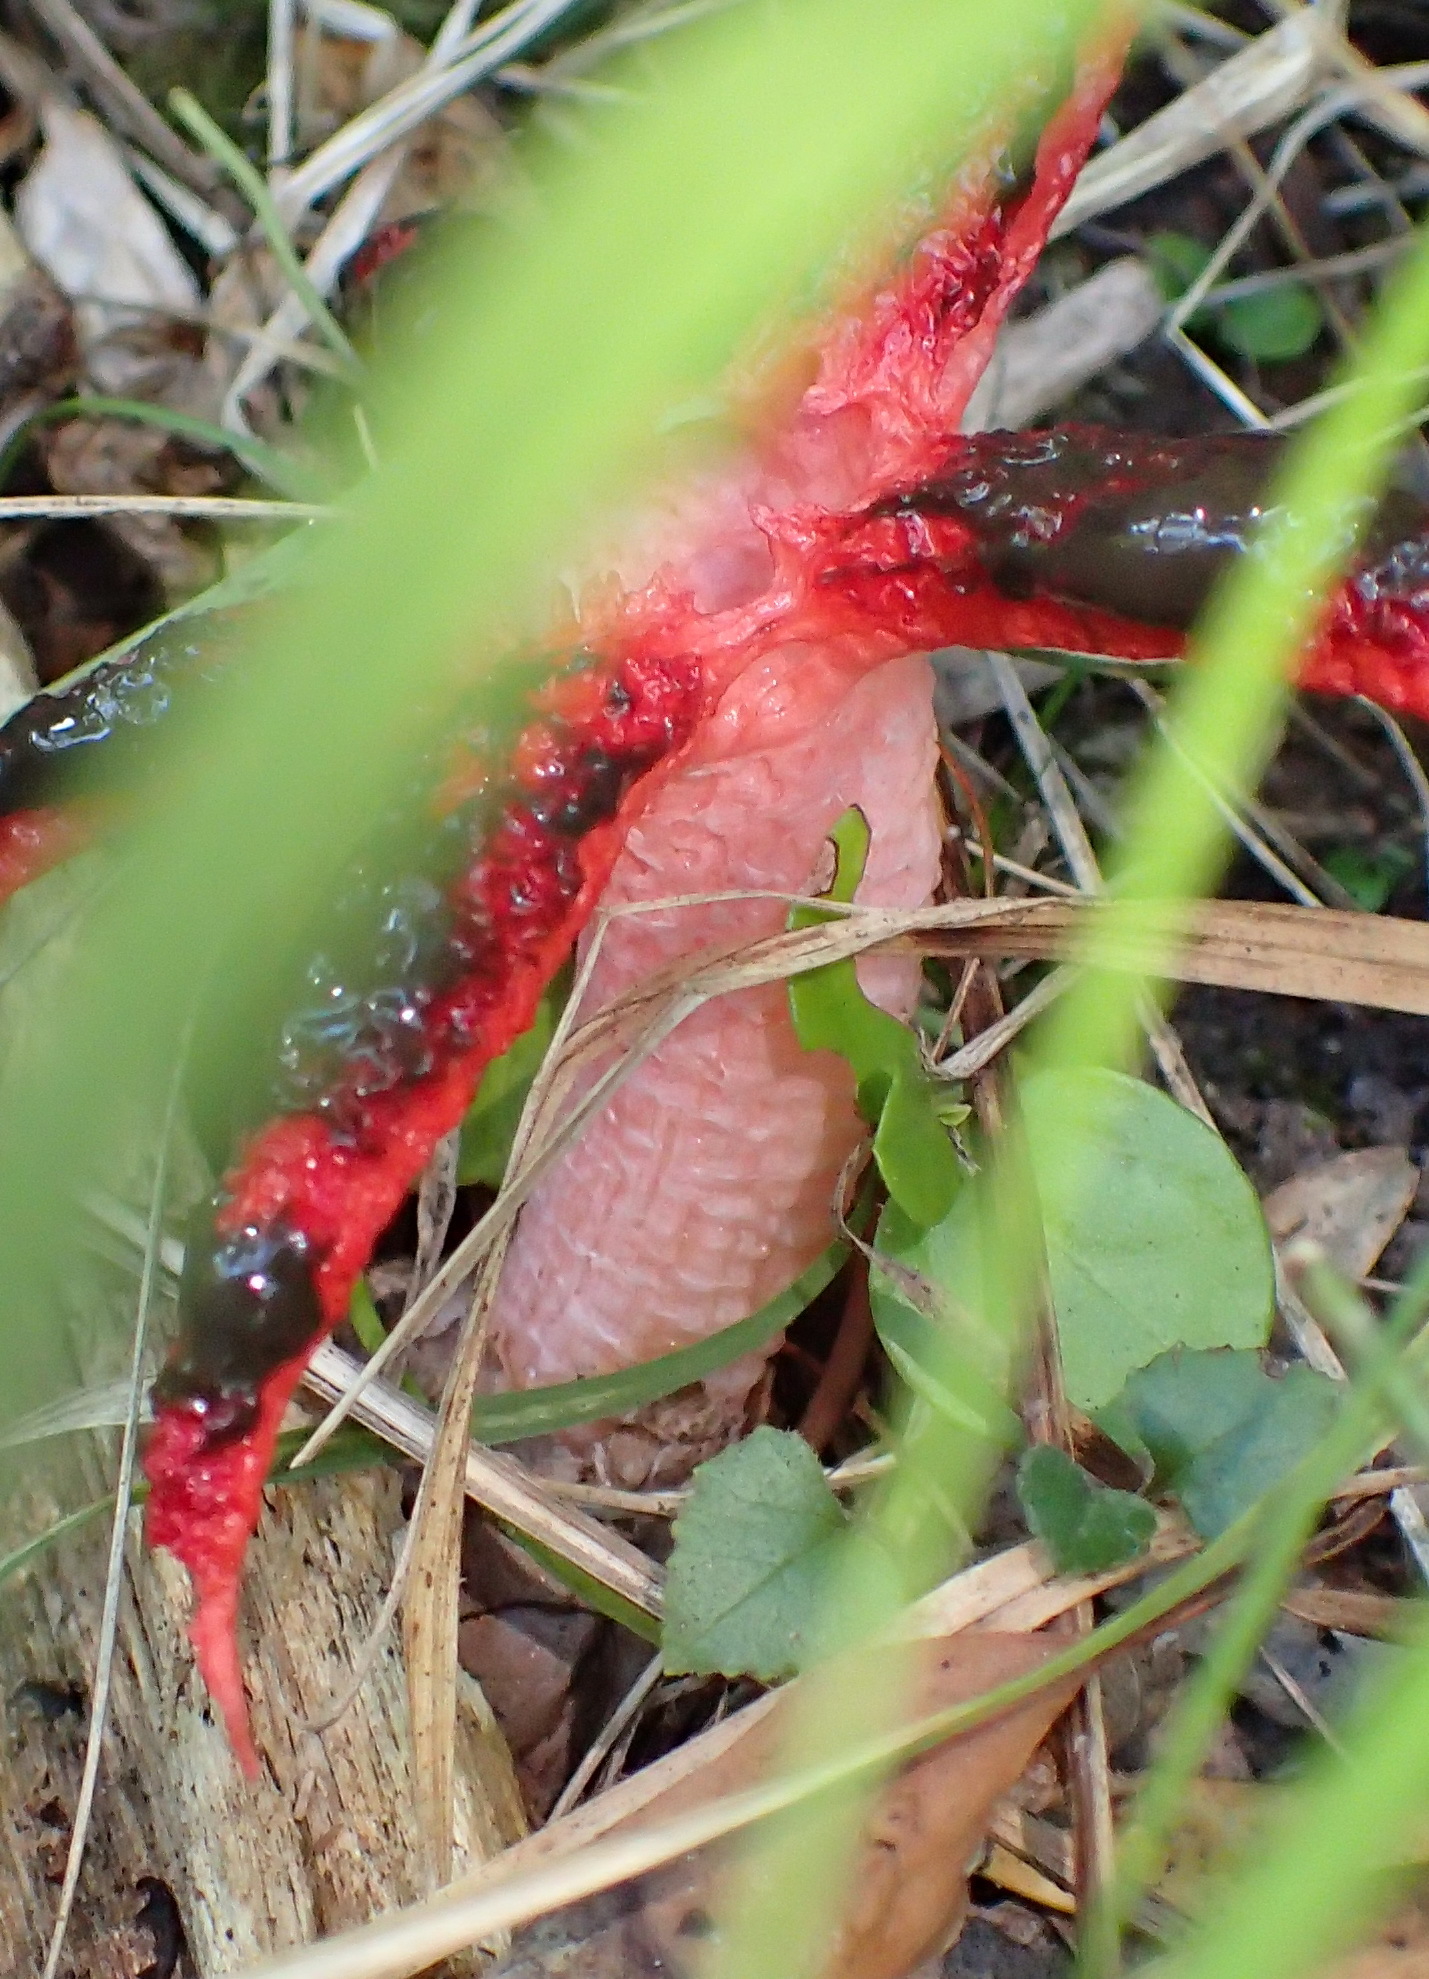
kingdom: Fungi
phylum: Basidiomycota
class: Agaricomycetes
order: Phallales
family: Phallaceae
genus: Clathrus
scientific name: Clathrus archeri
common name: Devil's fingers
